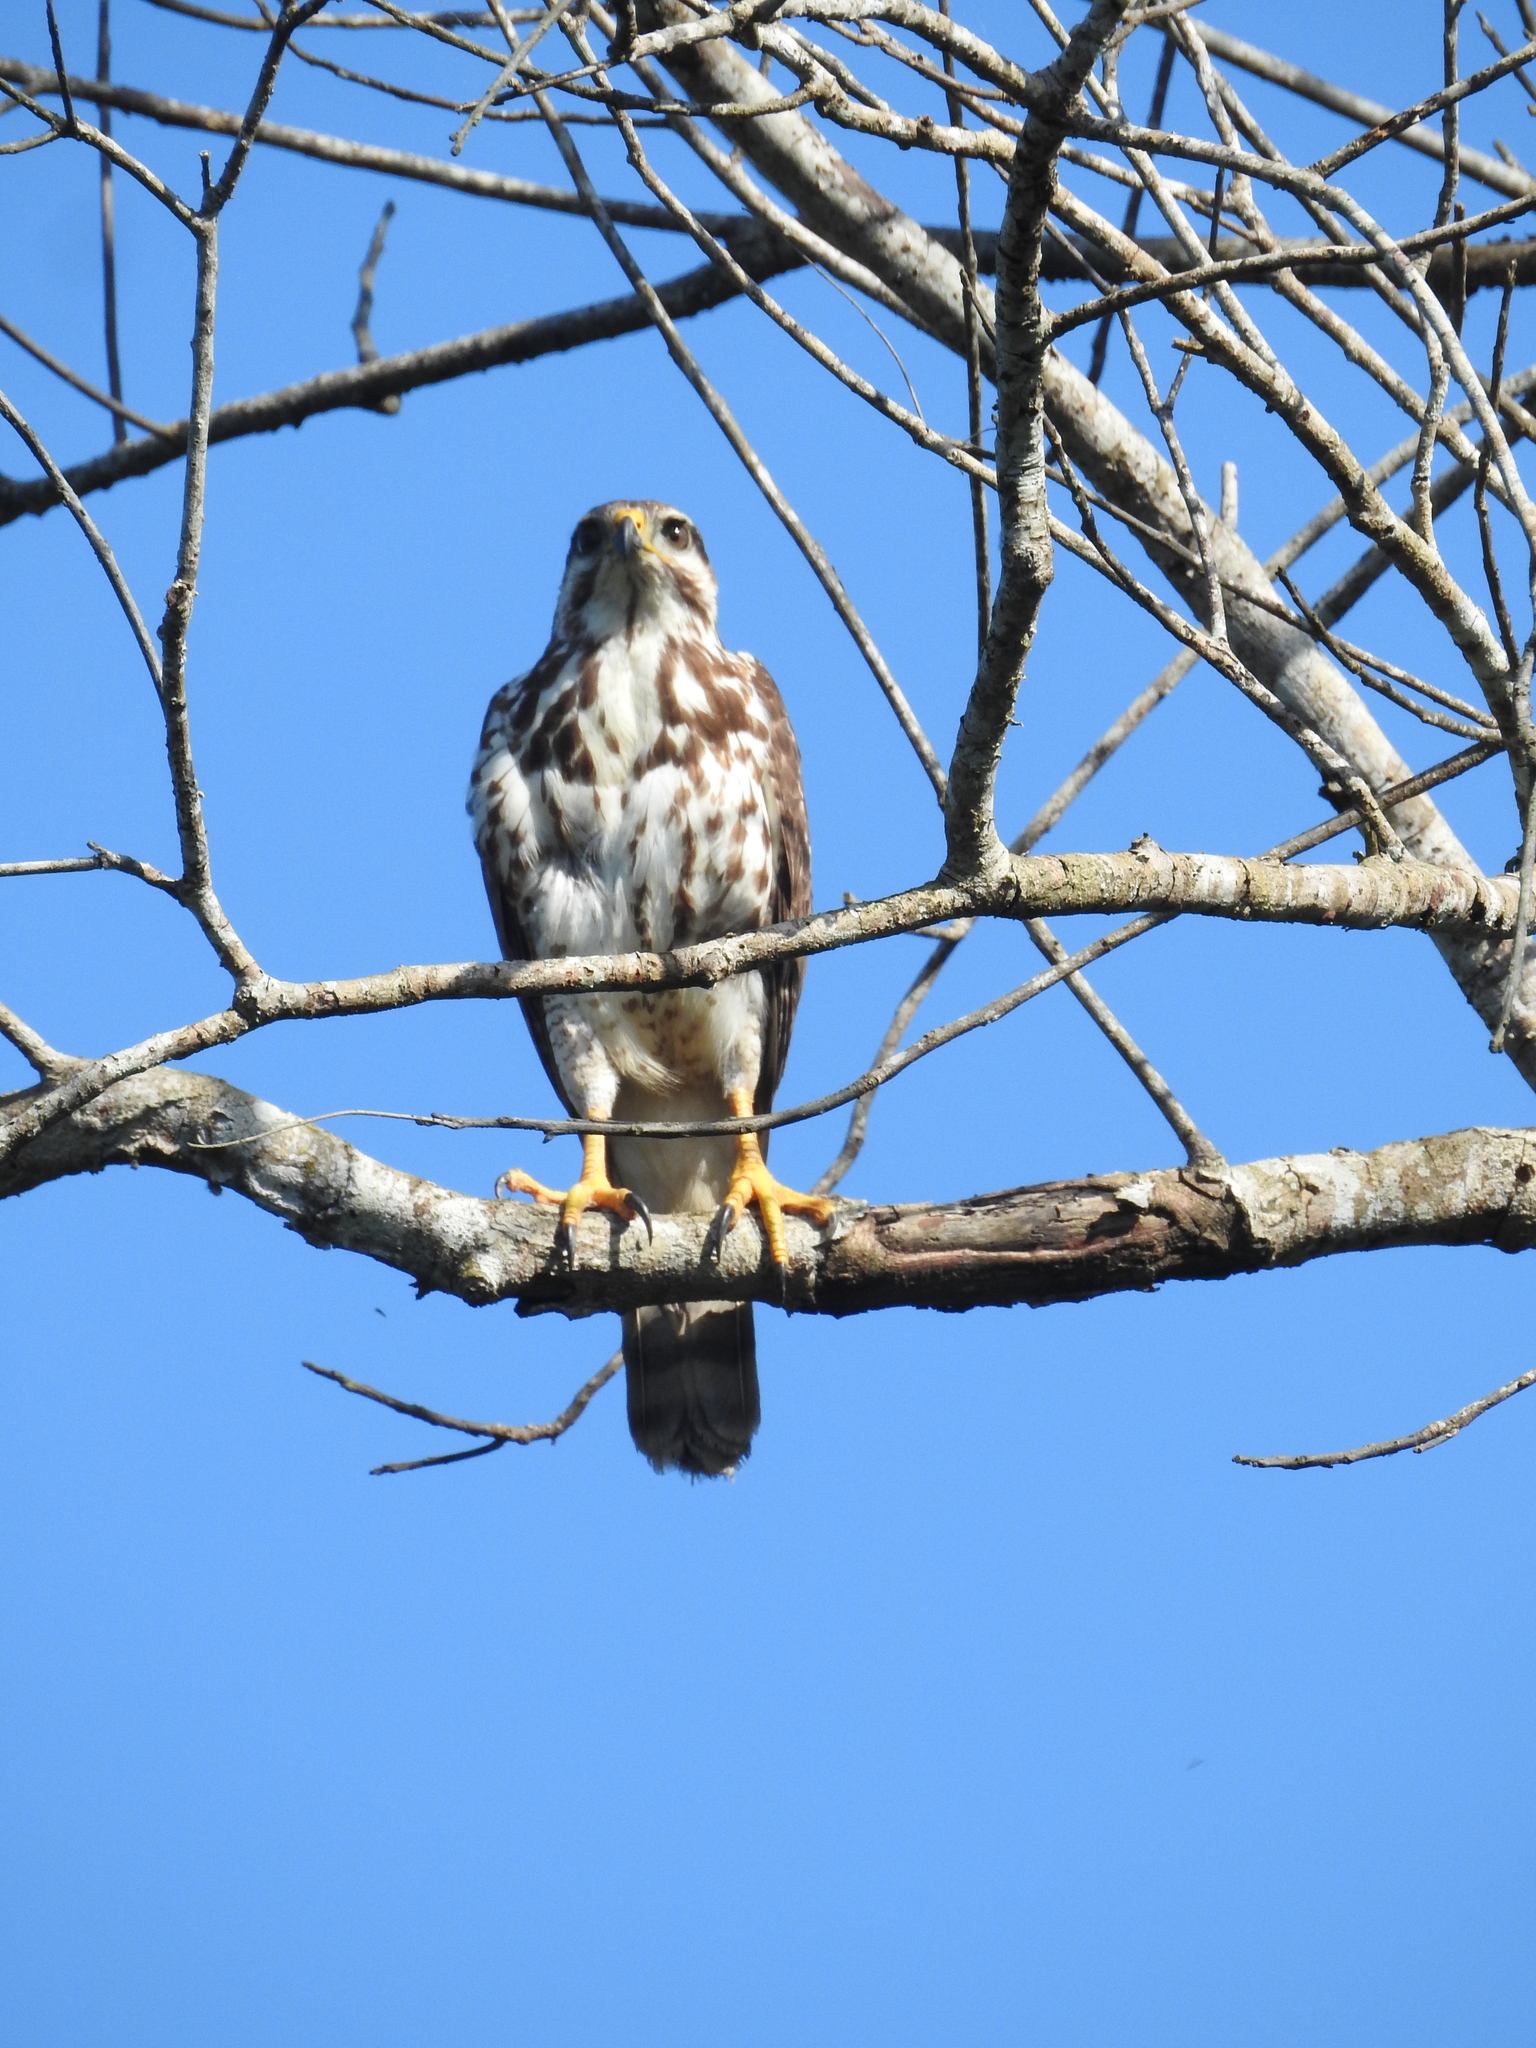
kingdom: Animalia
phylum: Chordata
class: Aves
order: Accipitriformes
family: Accipitridae
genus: Buteo
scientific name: Buteo nitidus
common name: Grey-lined hawk
